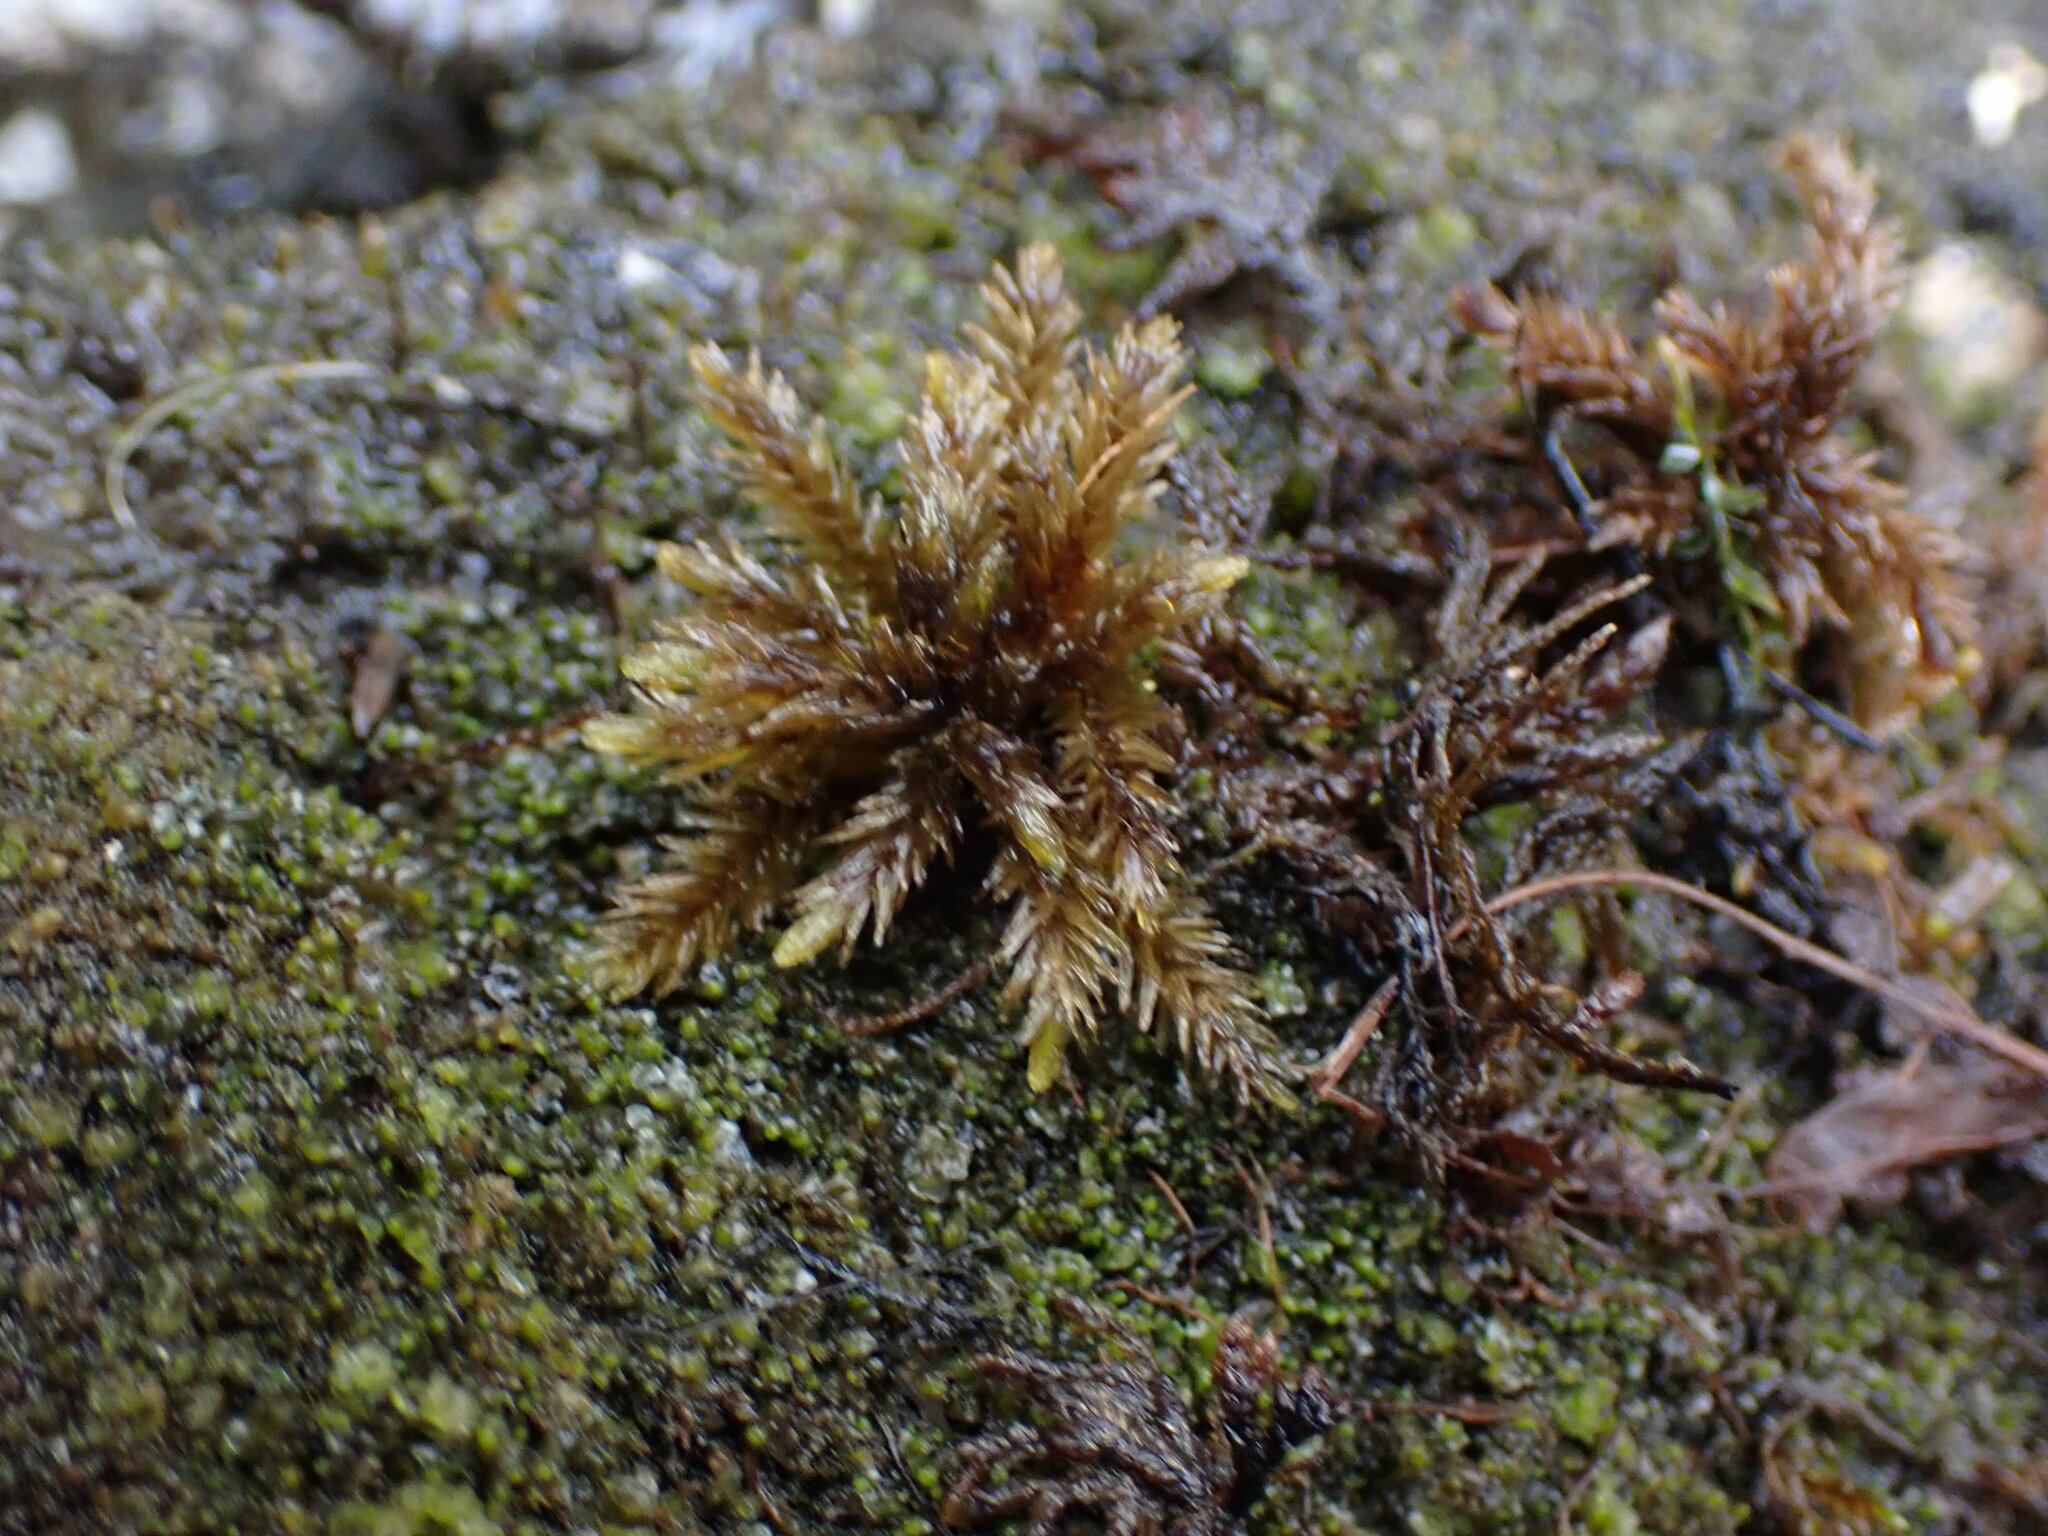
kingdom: Plantae
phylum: Bryophyta
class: Bryopsida
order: Hypnales
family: Climaciaceae
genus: Climacium
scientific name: Climacium dendroides
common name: Northern tree moss
